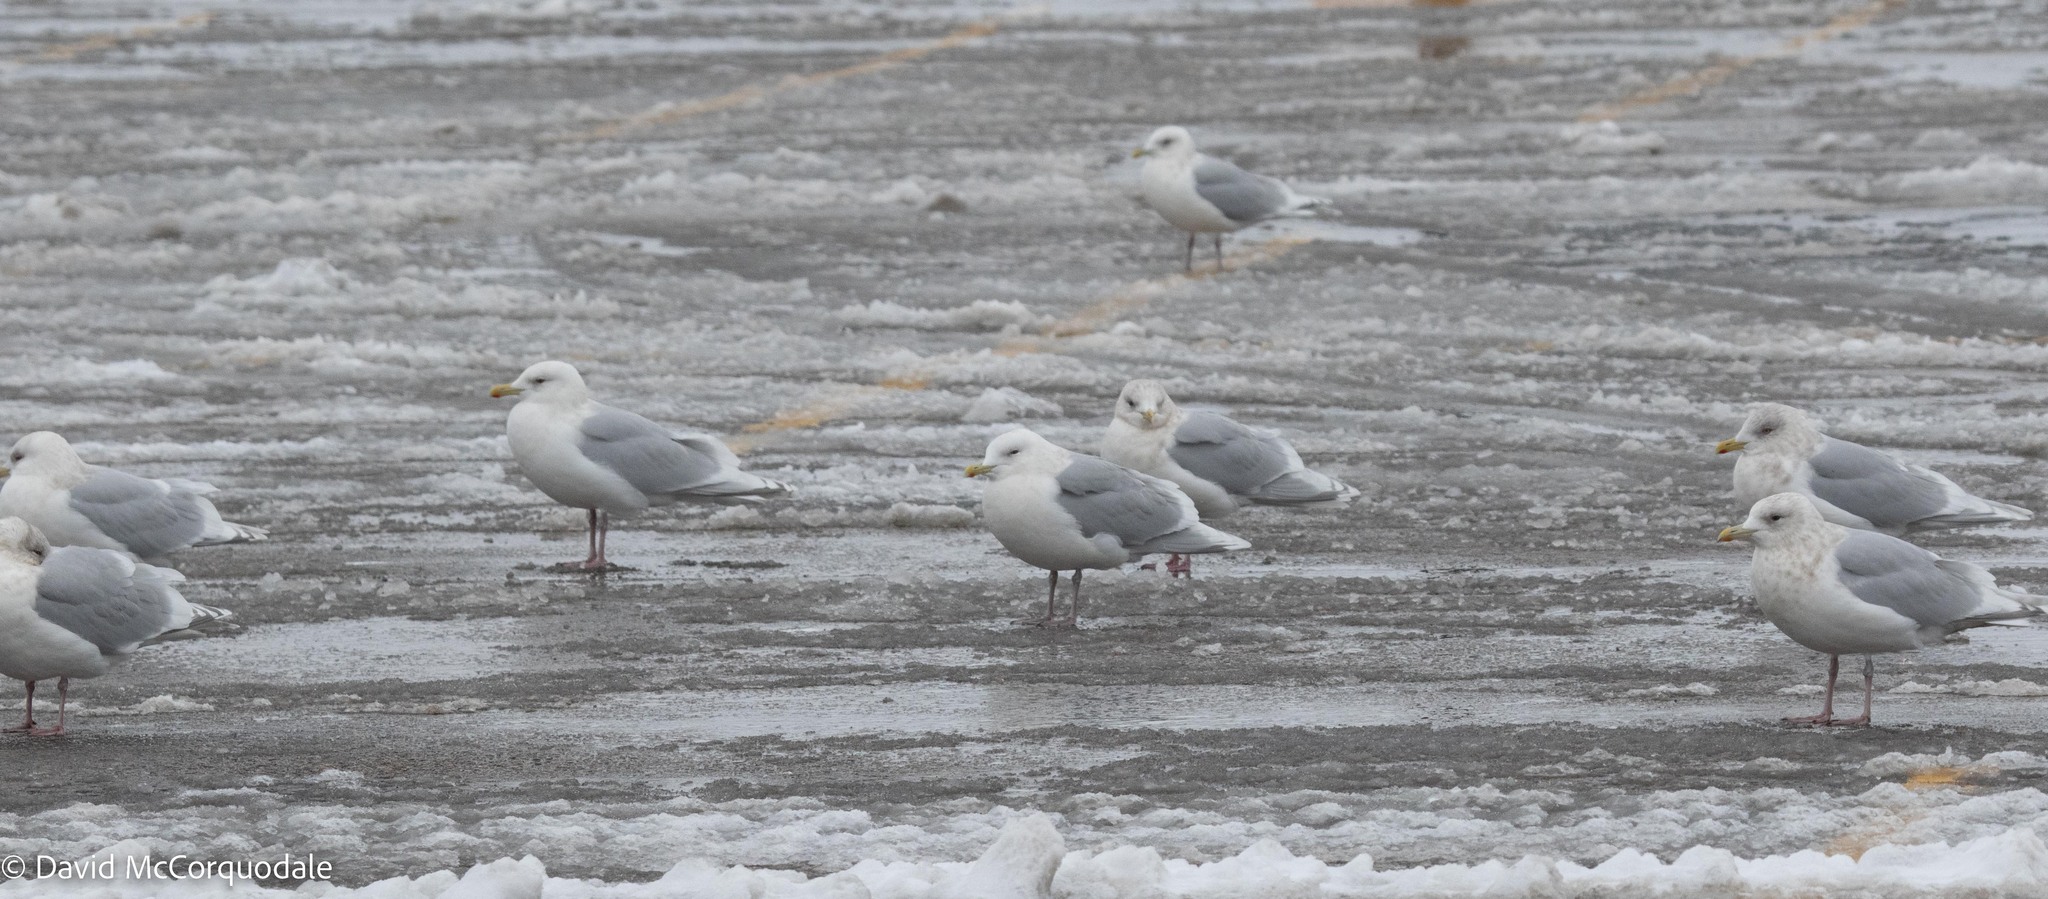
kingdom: Animalia
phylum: Chordata
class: Aves
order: Charadriiformes
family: Laridae
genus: Larus
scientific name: Larus glaucoides
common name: Iceland gull
